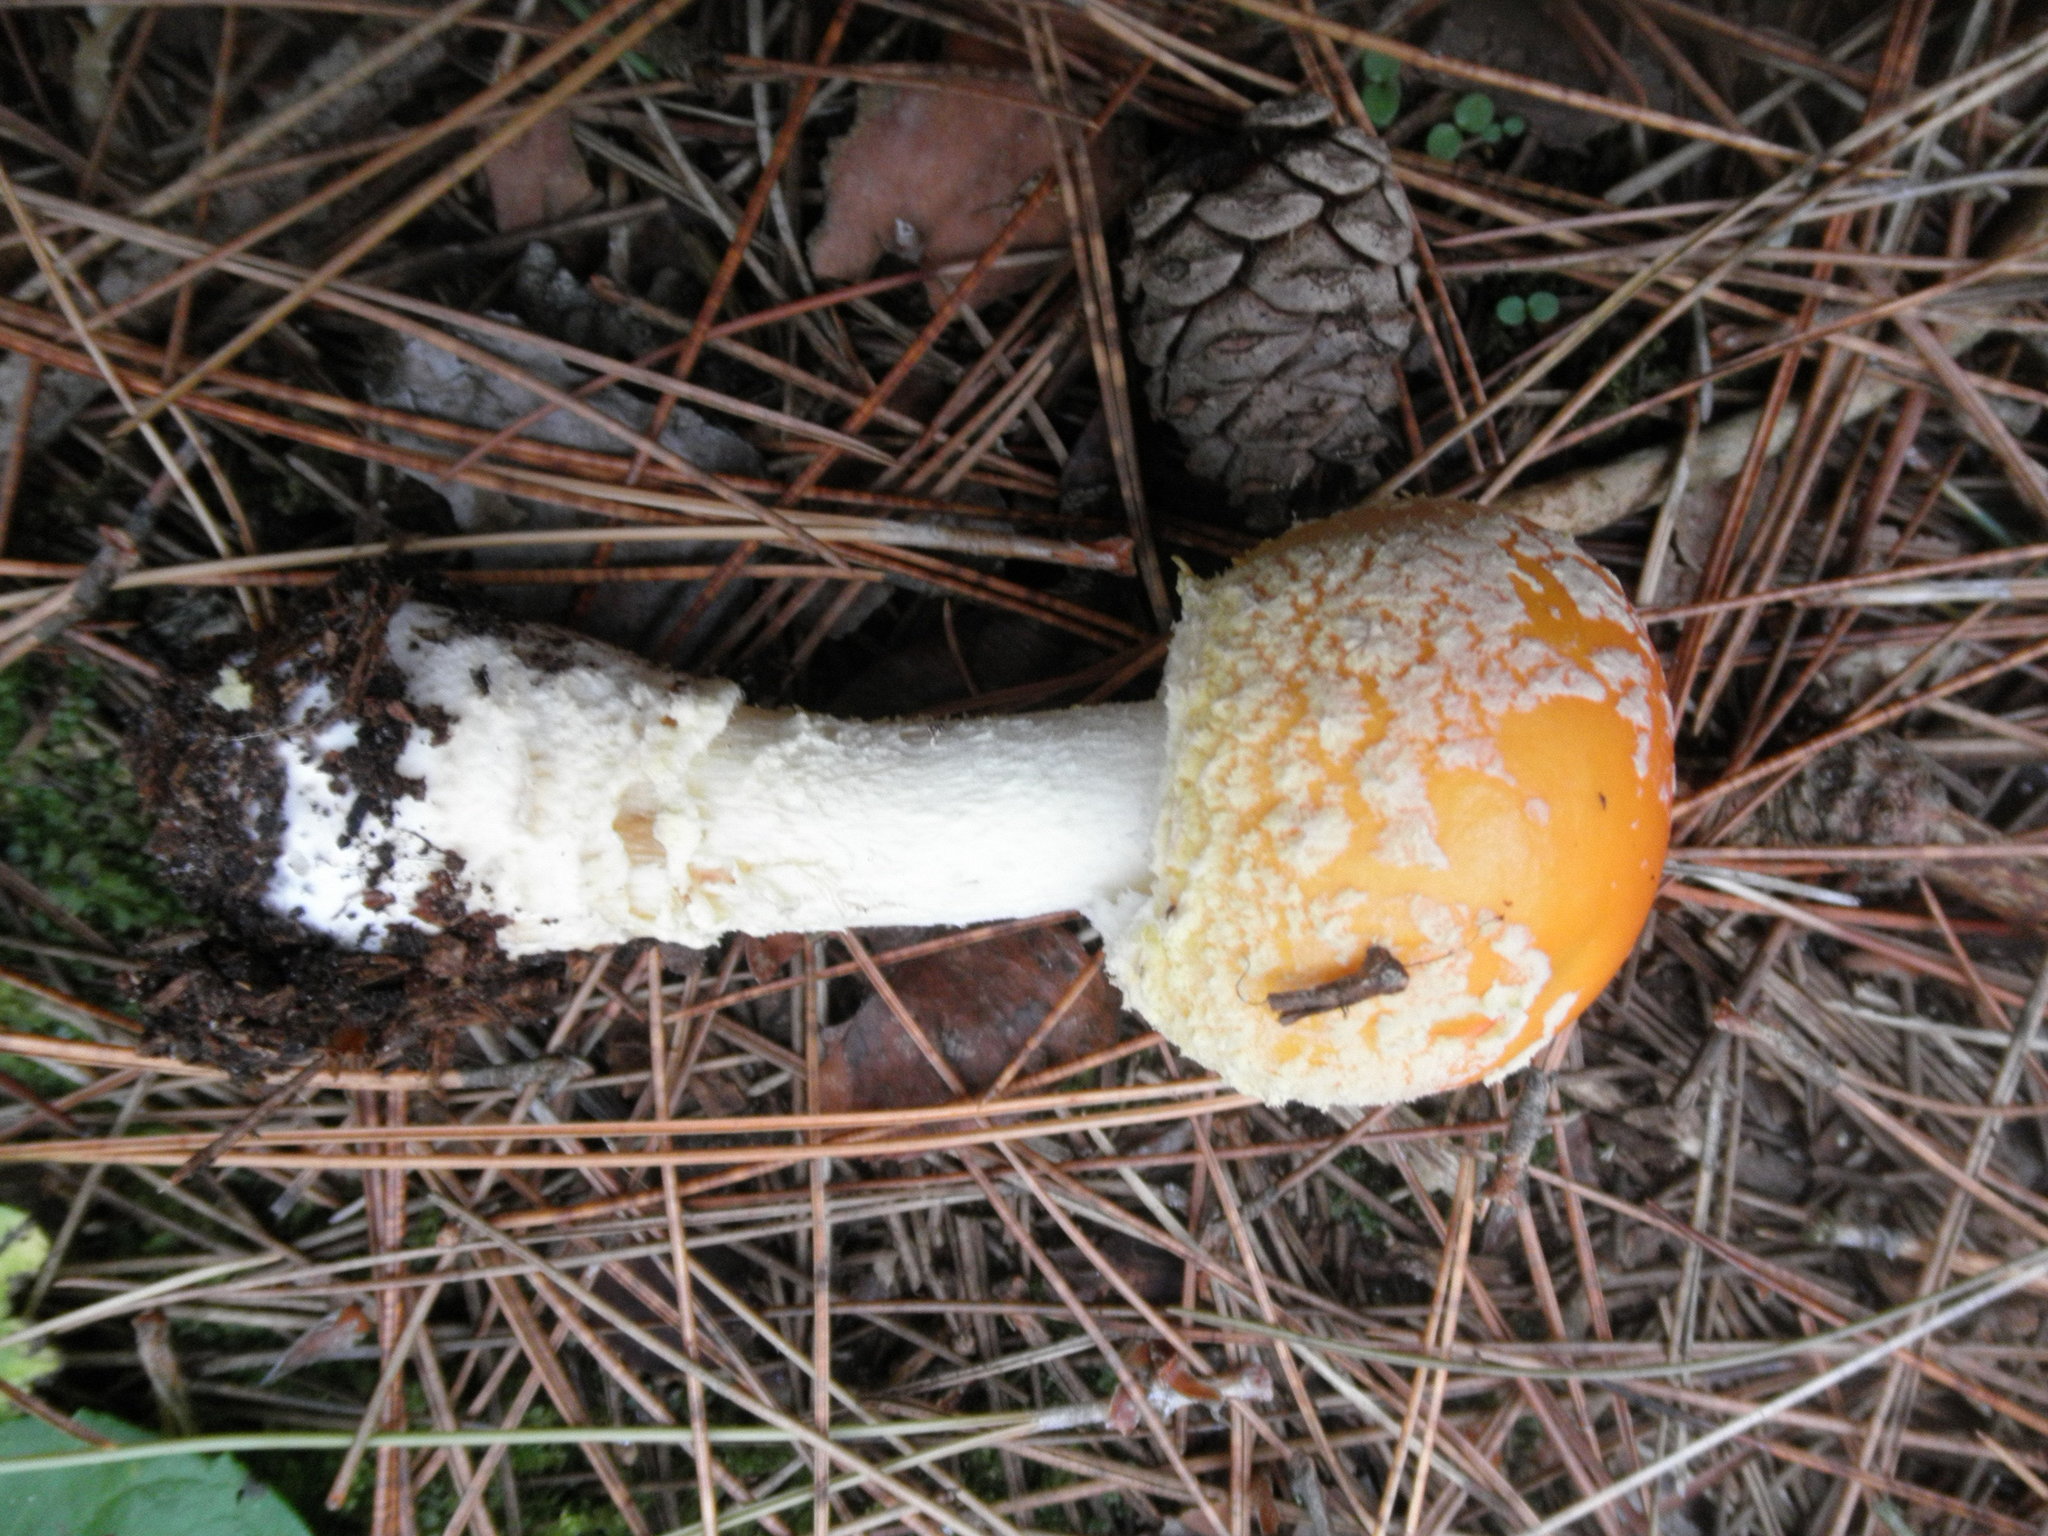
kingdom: Fungi
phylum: Basidiomycota
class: Agaricomycetes
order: Agaricales
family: Amanitaceae
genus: Amanita
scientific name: Amanita muscaria
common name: Fly agaric
